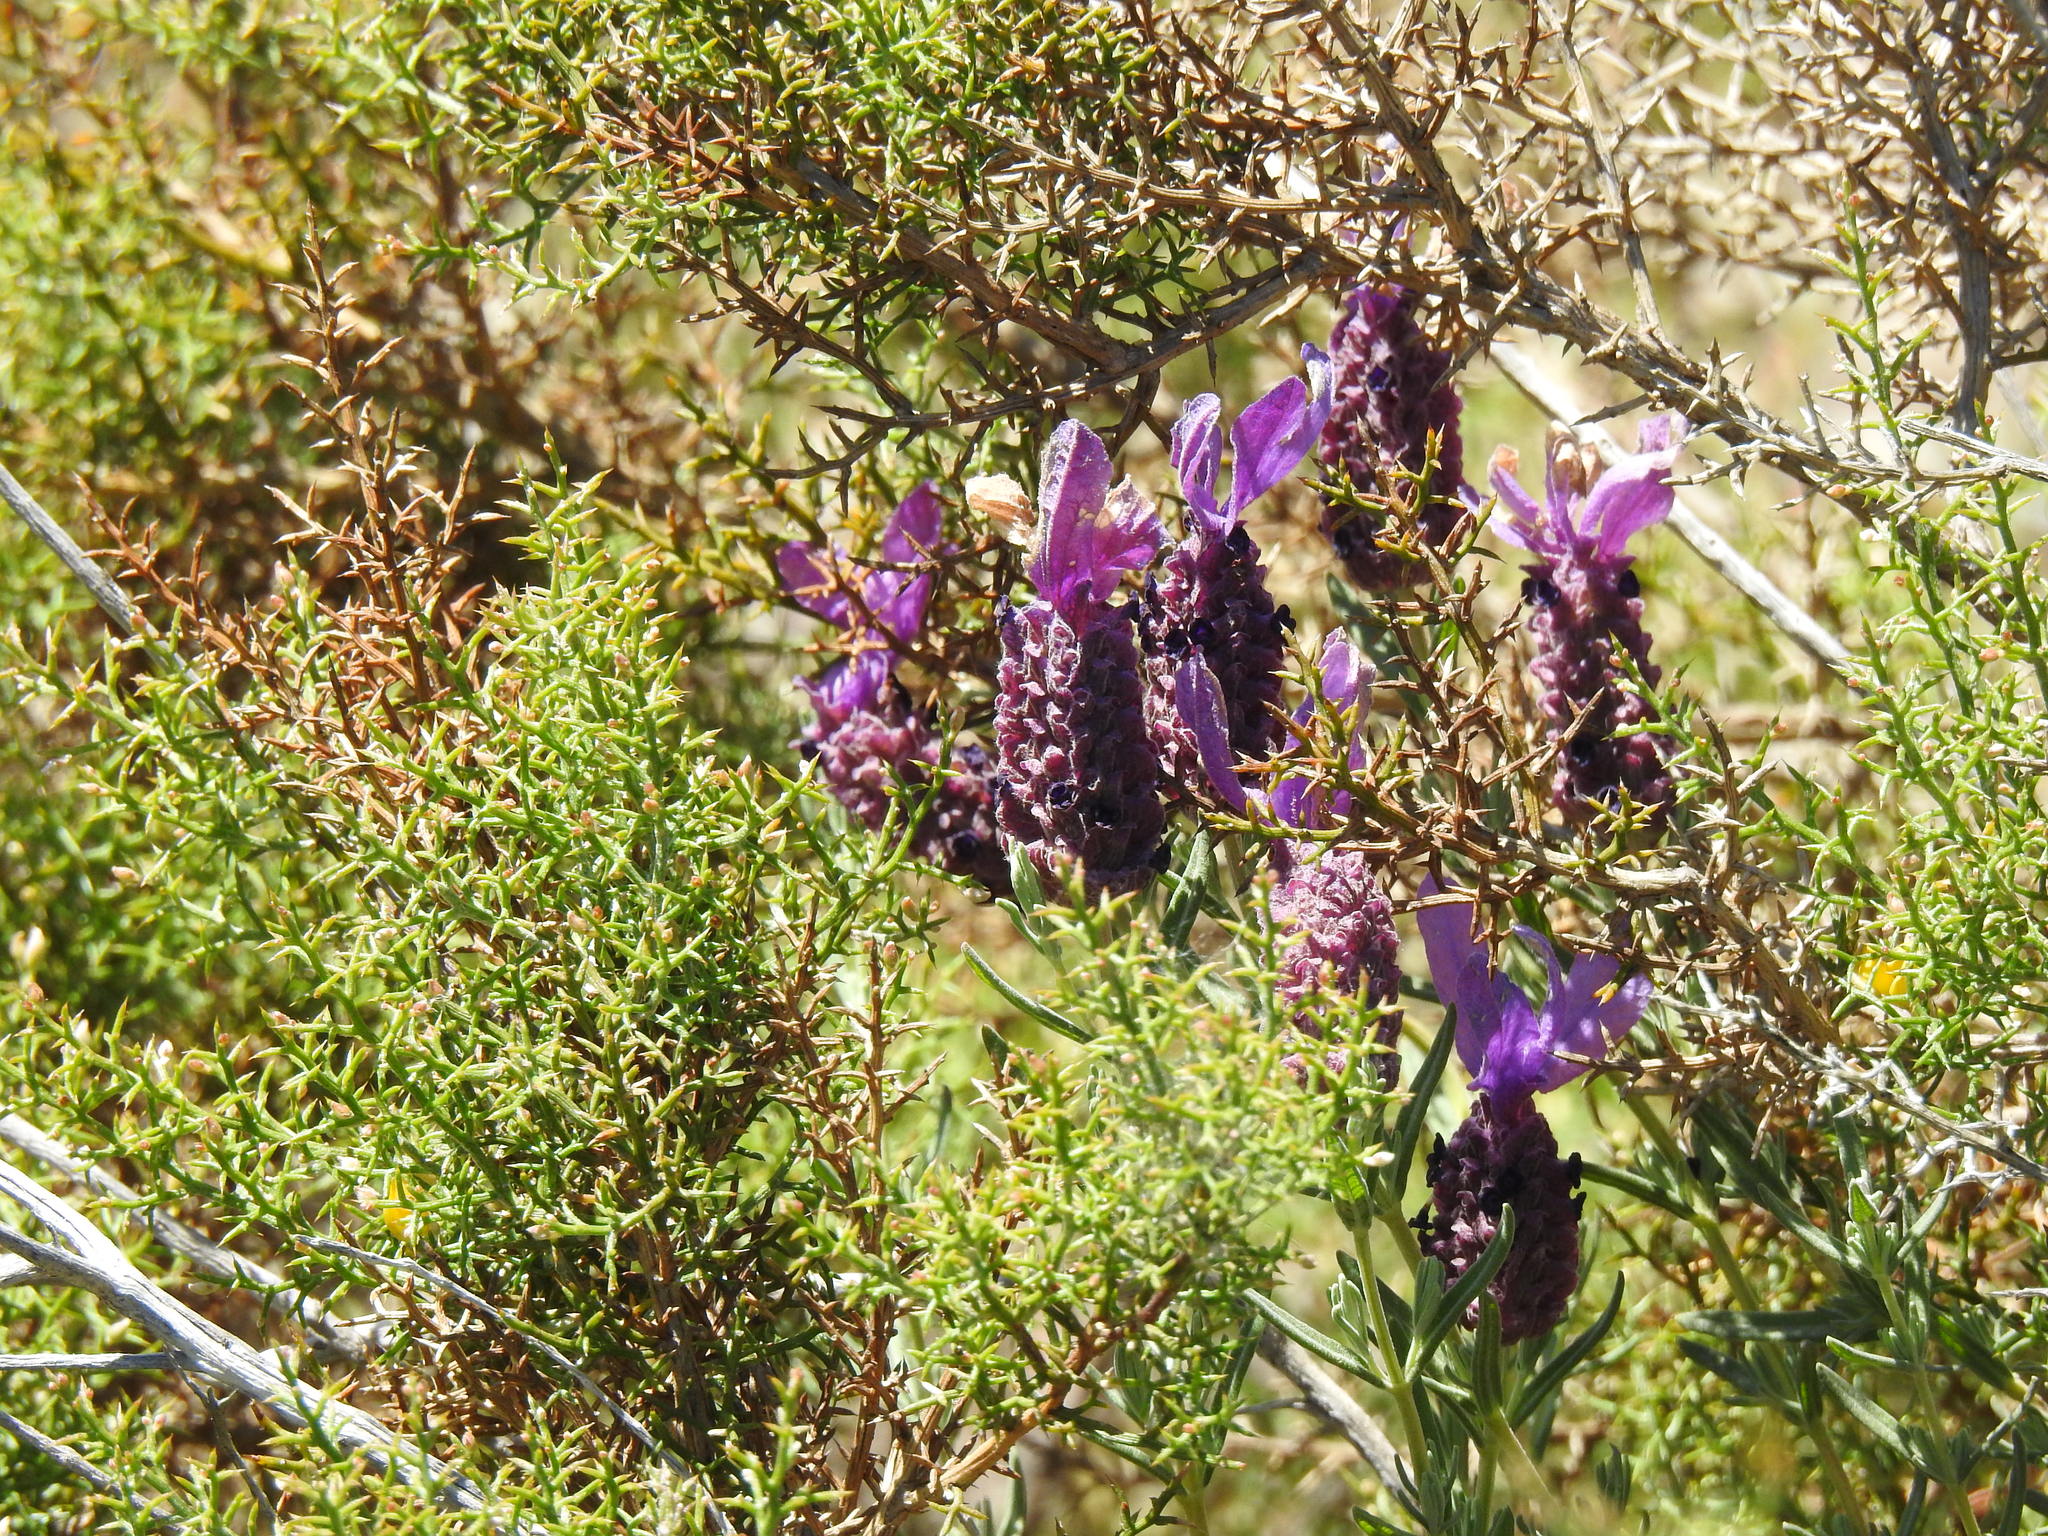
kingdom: Plantae
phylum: Tracheophyta
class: Magnoliopsida
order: Lamiales
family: Lamiaceae
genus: Lavandula
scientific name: Lavandula stoechas
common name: French lavender
